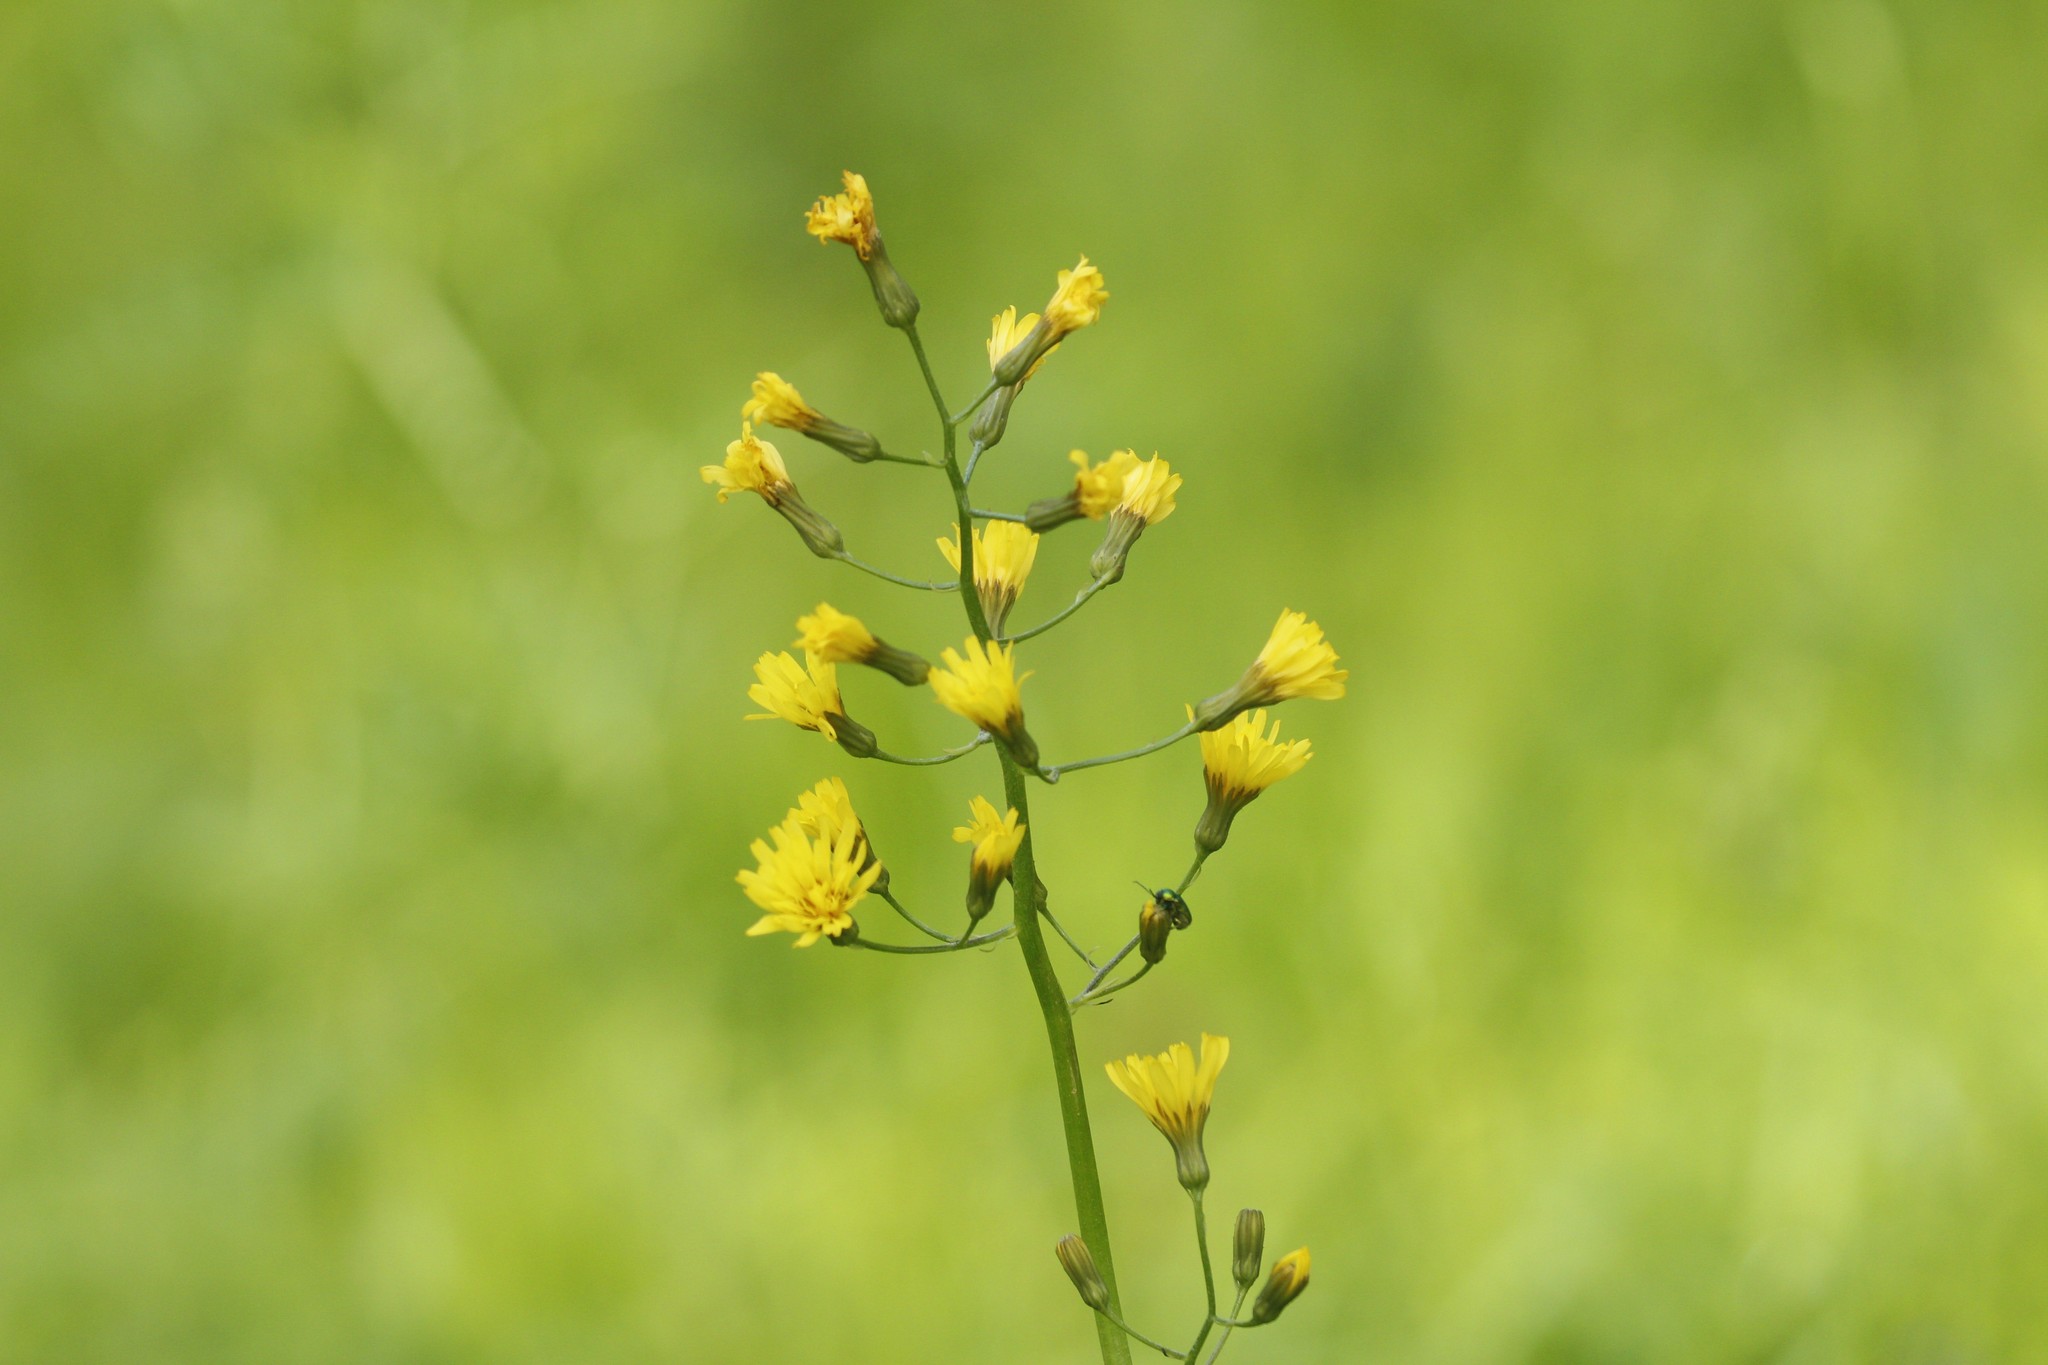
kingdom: Plantae
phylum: Tracheophyta
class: Magnoliopsida
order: Asterales
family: Asteraceae
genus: Crepis
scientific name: Crepis praemorsa
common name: Leafless hawk's-beard
